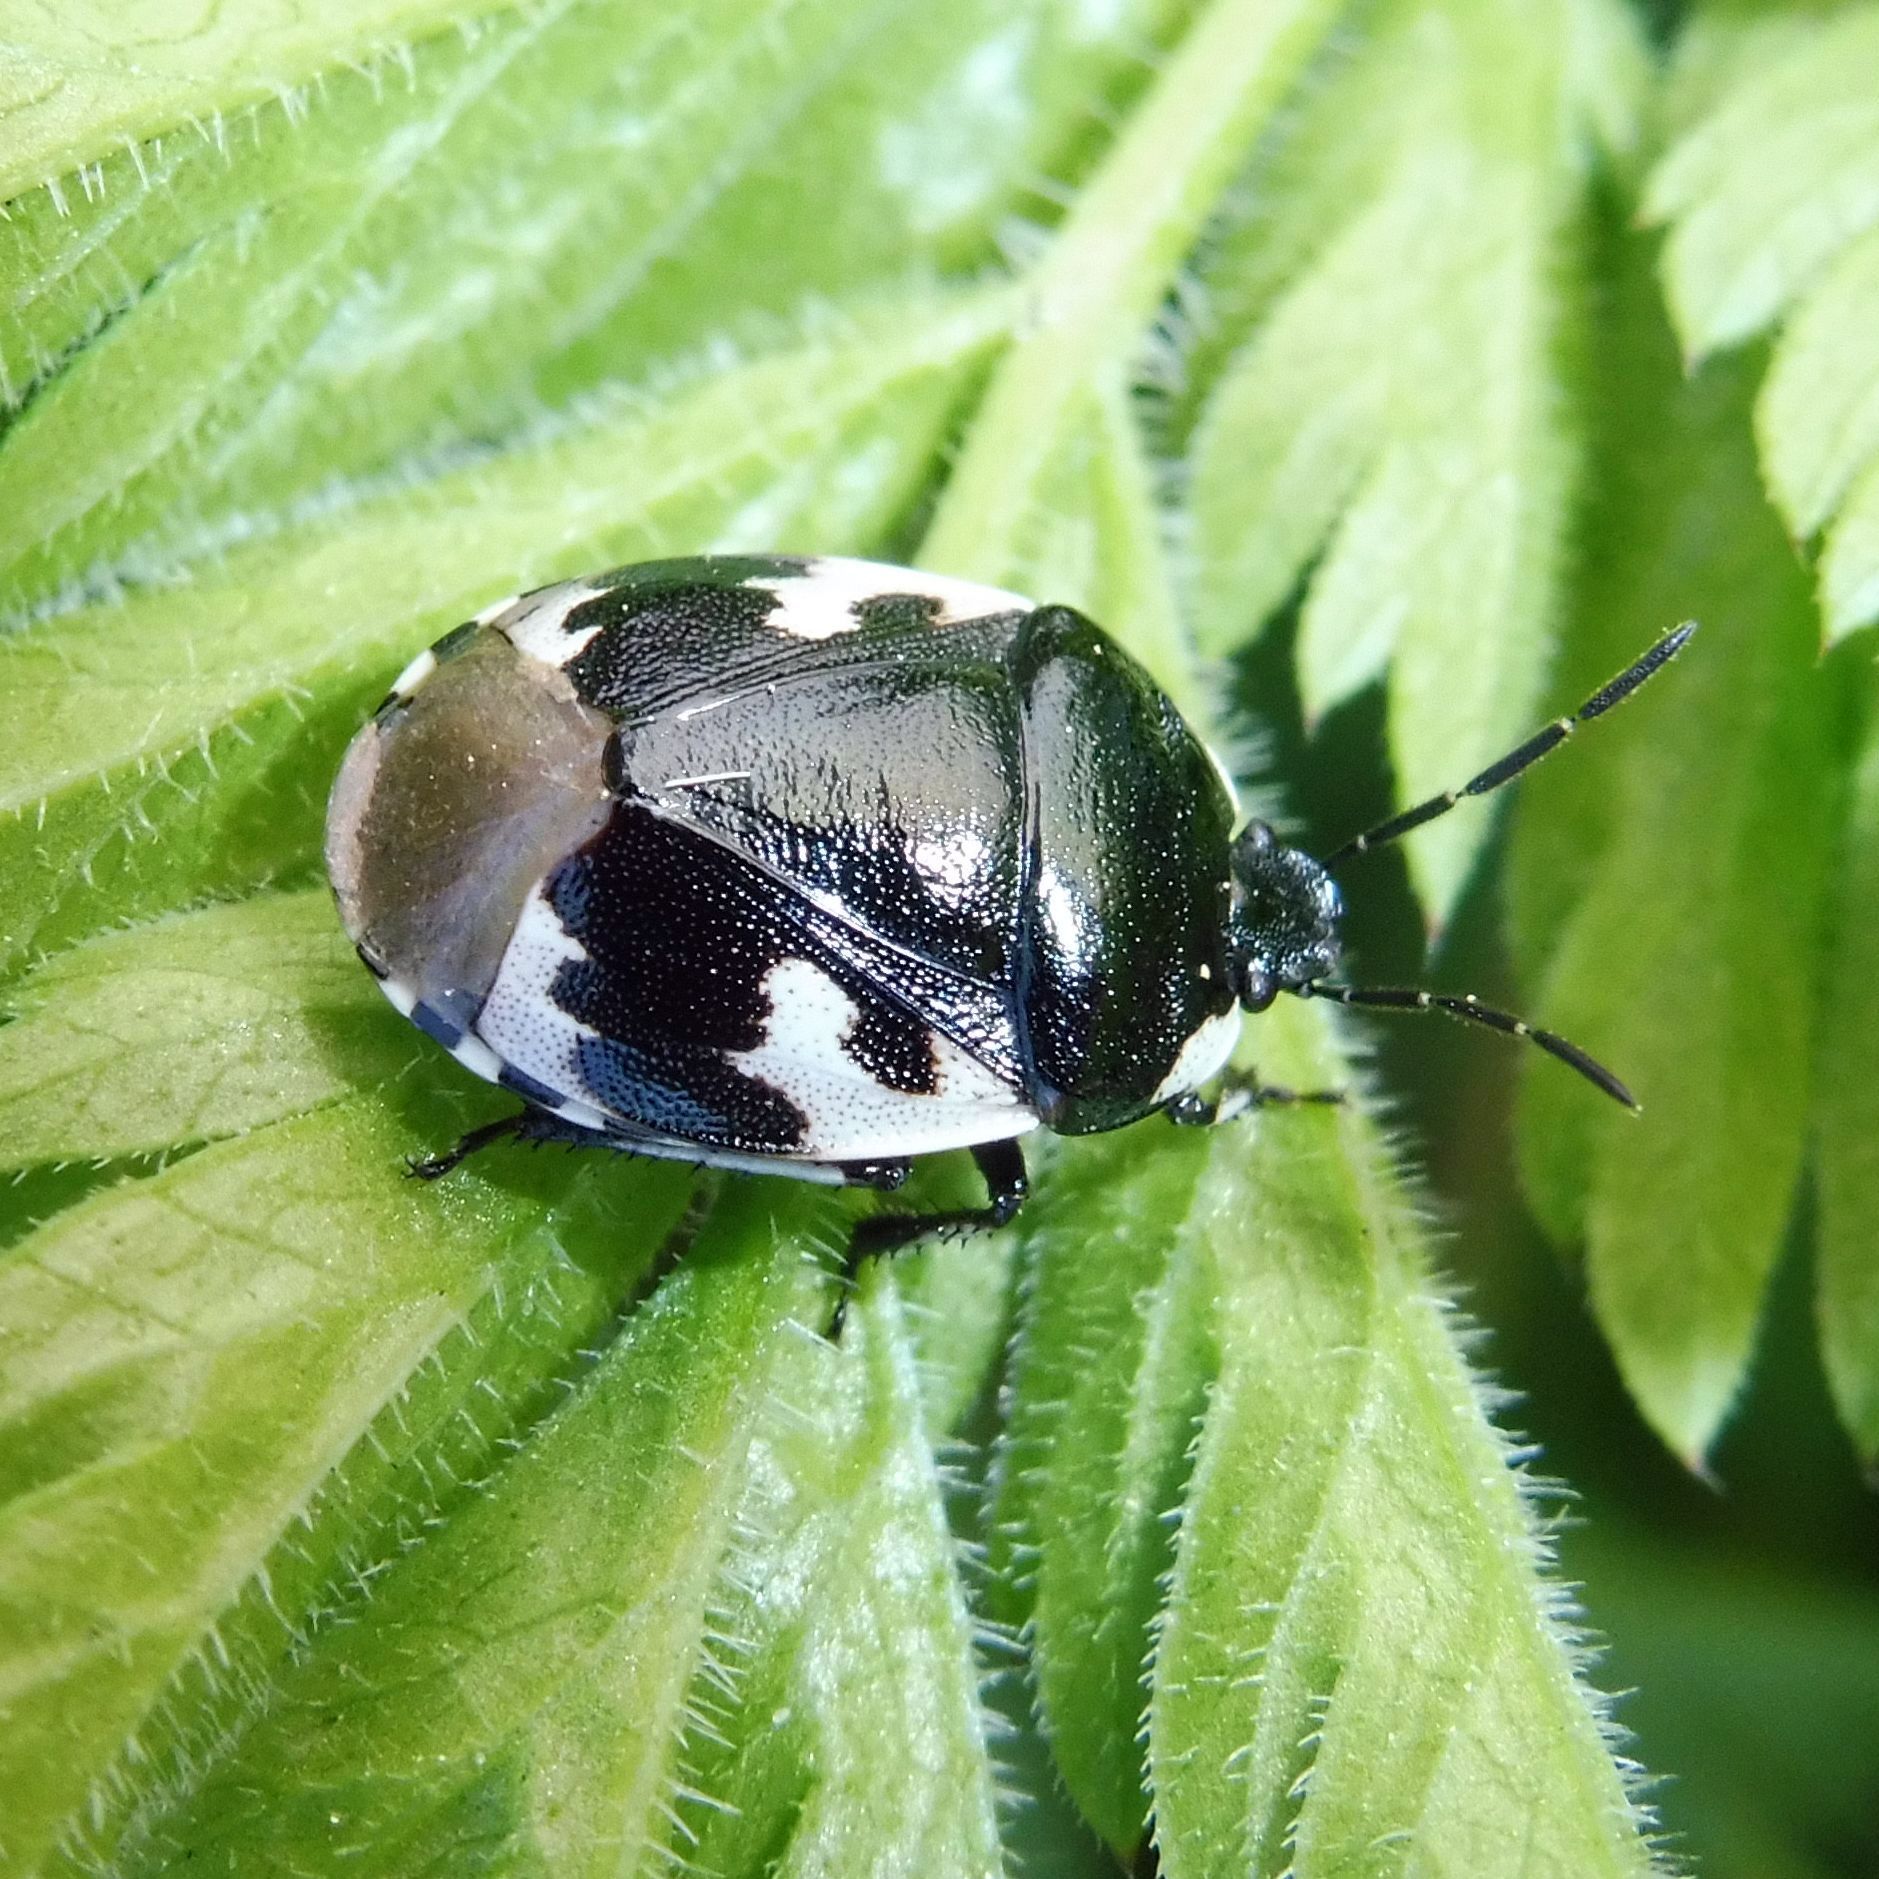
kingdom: Animalia
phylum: Arthropoda
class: Insecta
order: Hemiptera
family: Cydnidae
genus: Tritomegas
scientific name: Tritomegas bicolor
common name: Pied shieldbug
